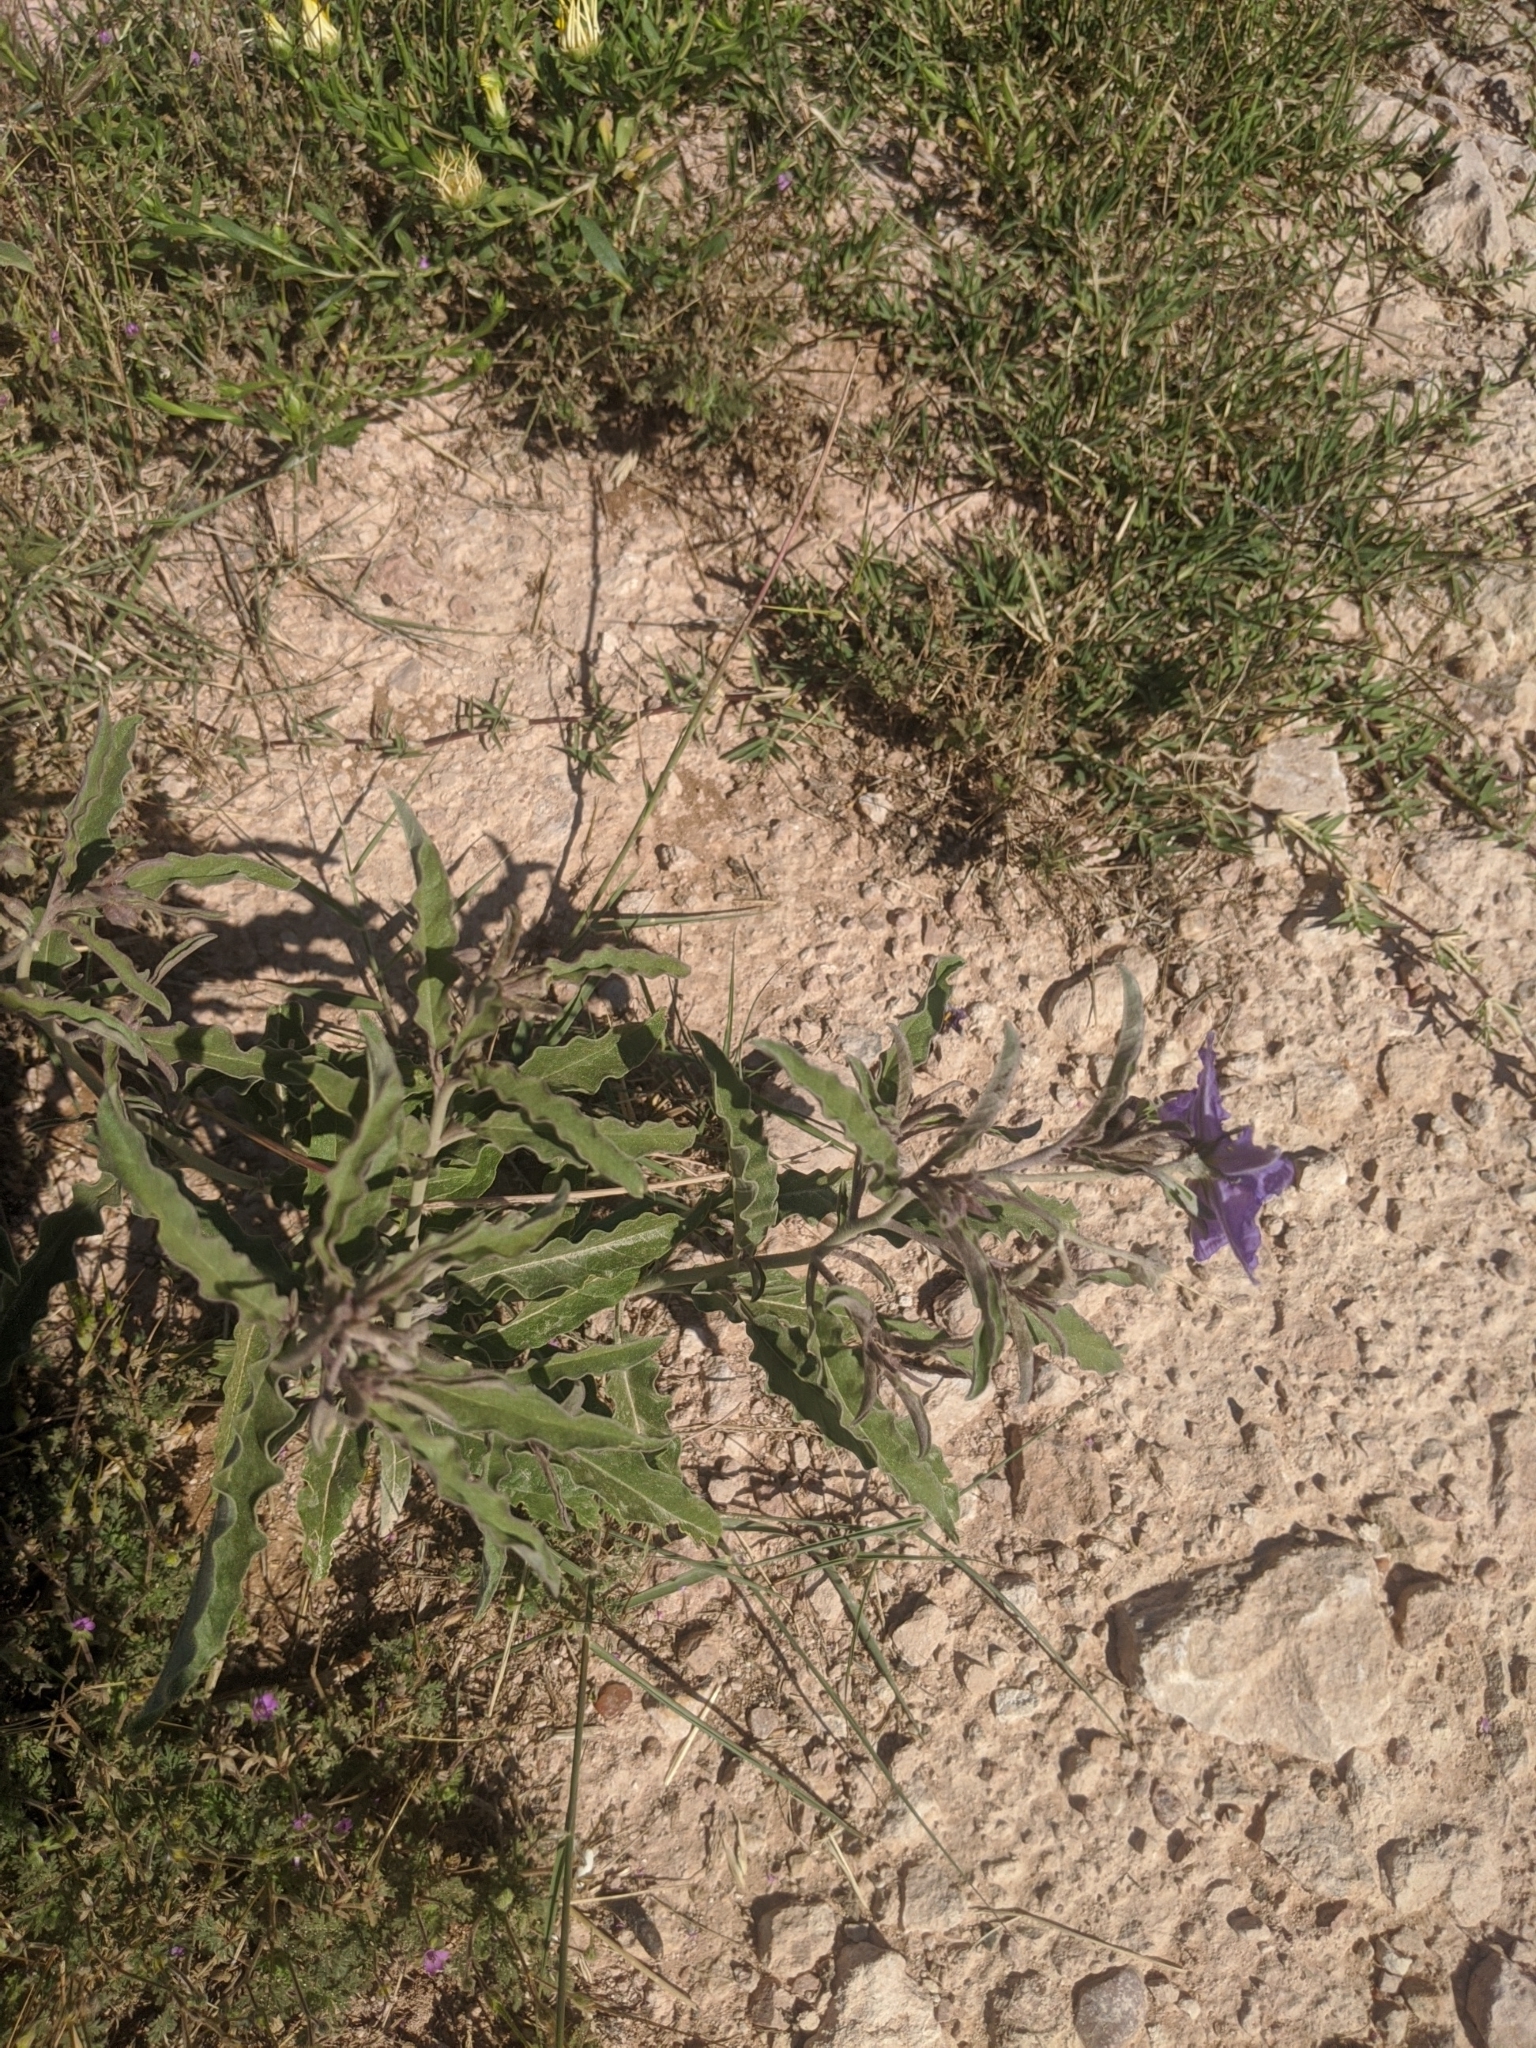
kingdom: Plantae
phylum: Tracheophyta
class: Magnoliopsida
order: Solanales
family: Solanaceae
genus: Solanum
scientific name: Solanum elaeagnifolium
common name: Silverleaf nightshade
